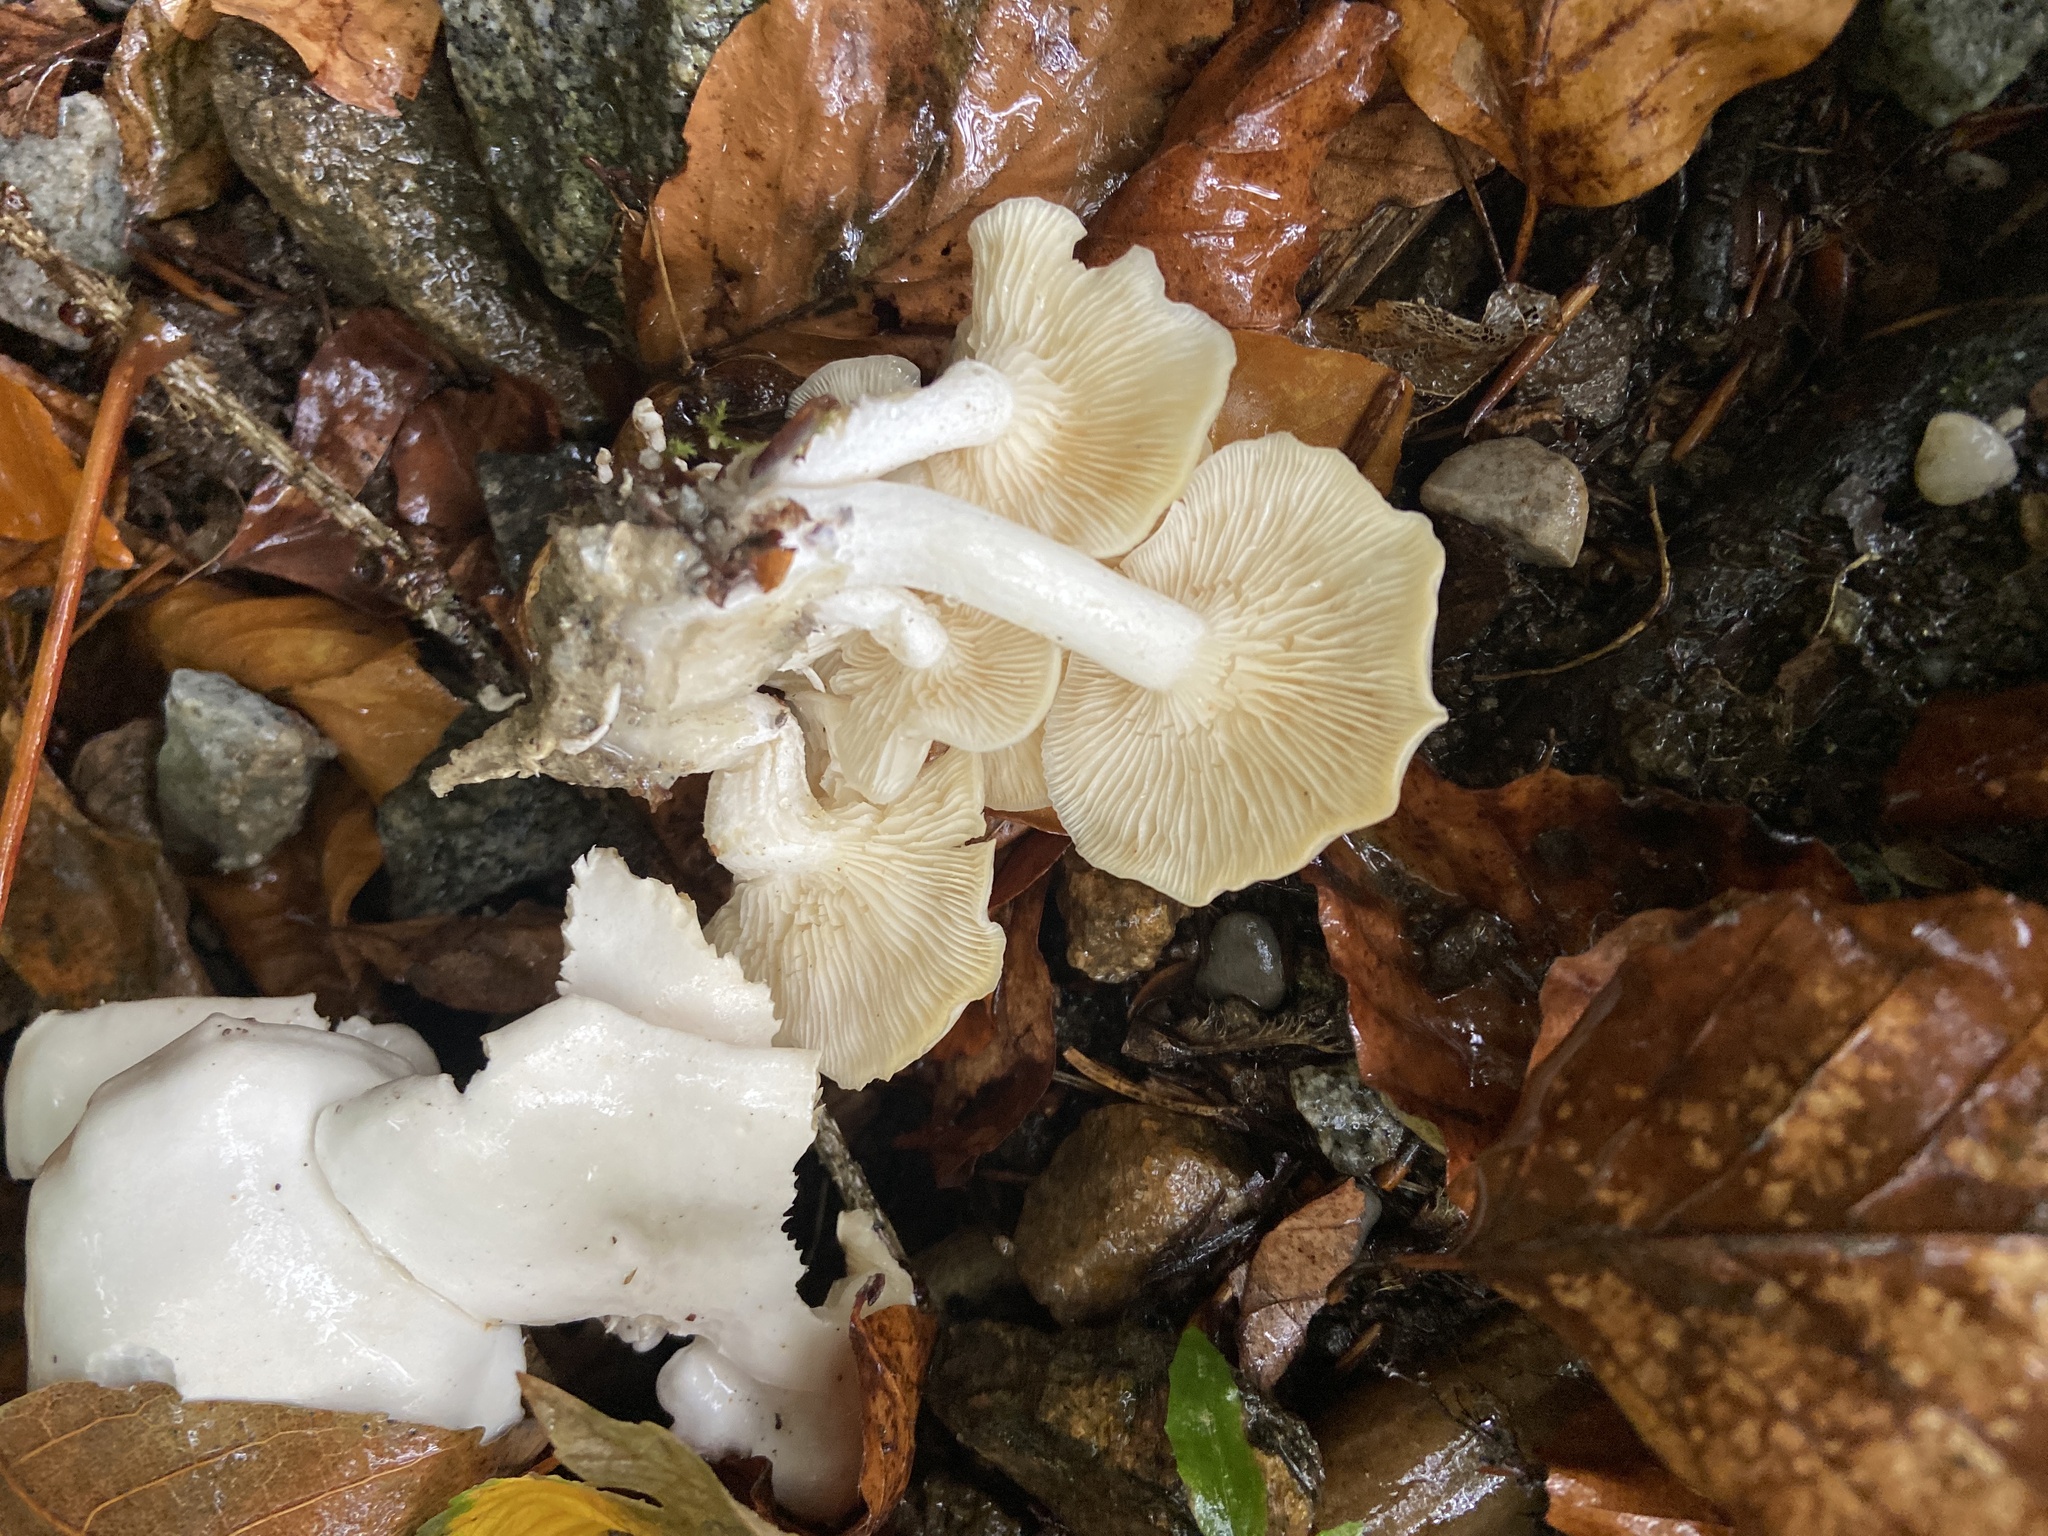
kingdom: Fungi
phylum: Basidiomycota
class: Agaricomycetes
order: Agaricales
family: Tricholomataceae
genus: Leucocybe
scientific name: Leucocybe connata
